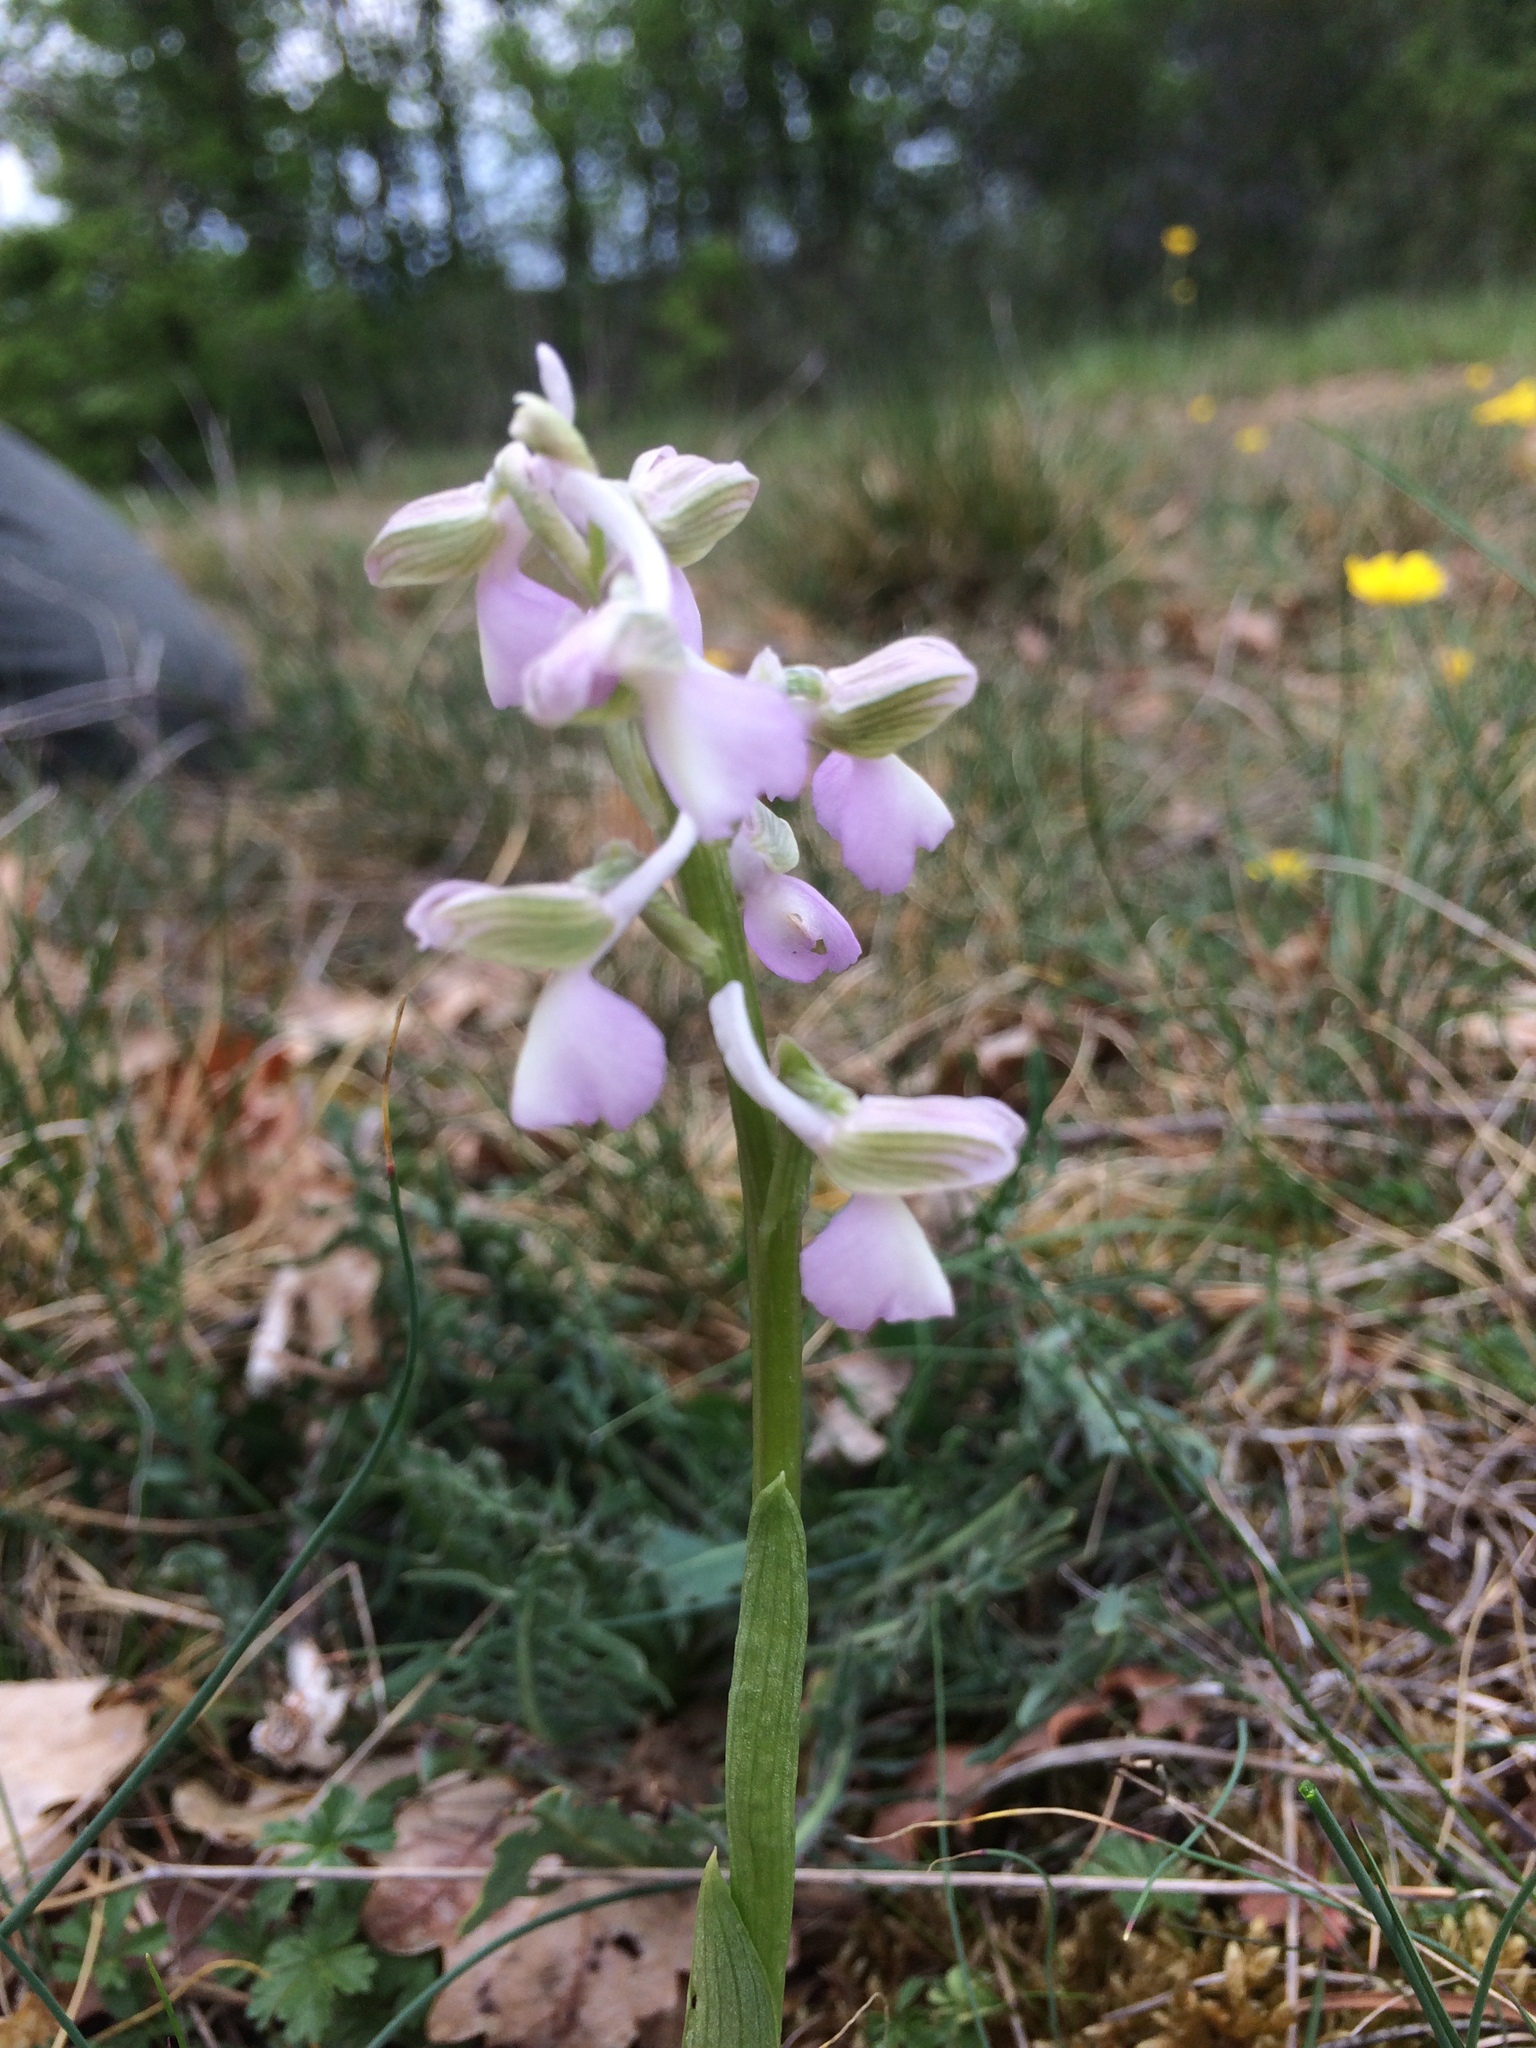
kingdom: Plantae
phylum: Tracheophyta
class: Liliopsida
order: Asparagales
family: Orchidaceae
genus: Anacamptis
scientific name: Anacamptis morio
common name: Green-winged orchid
